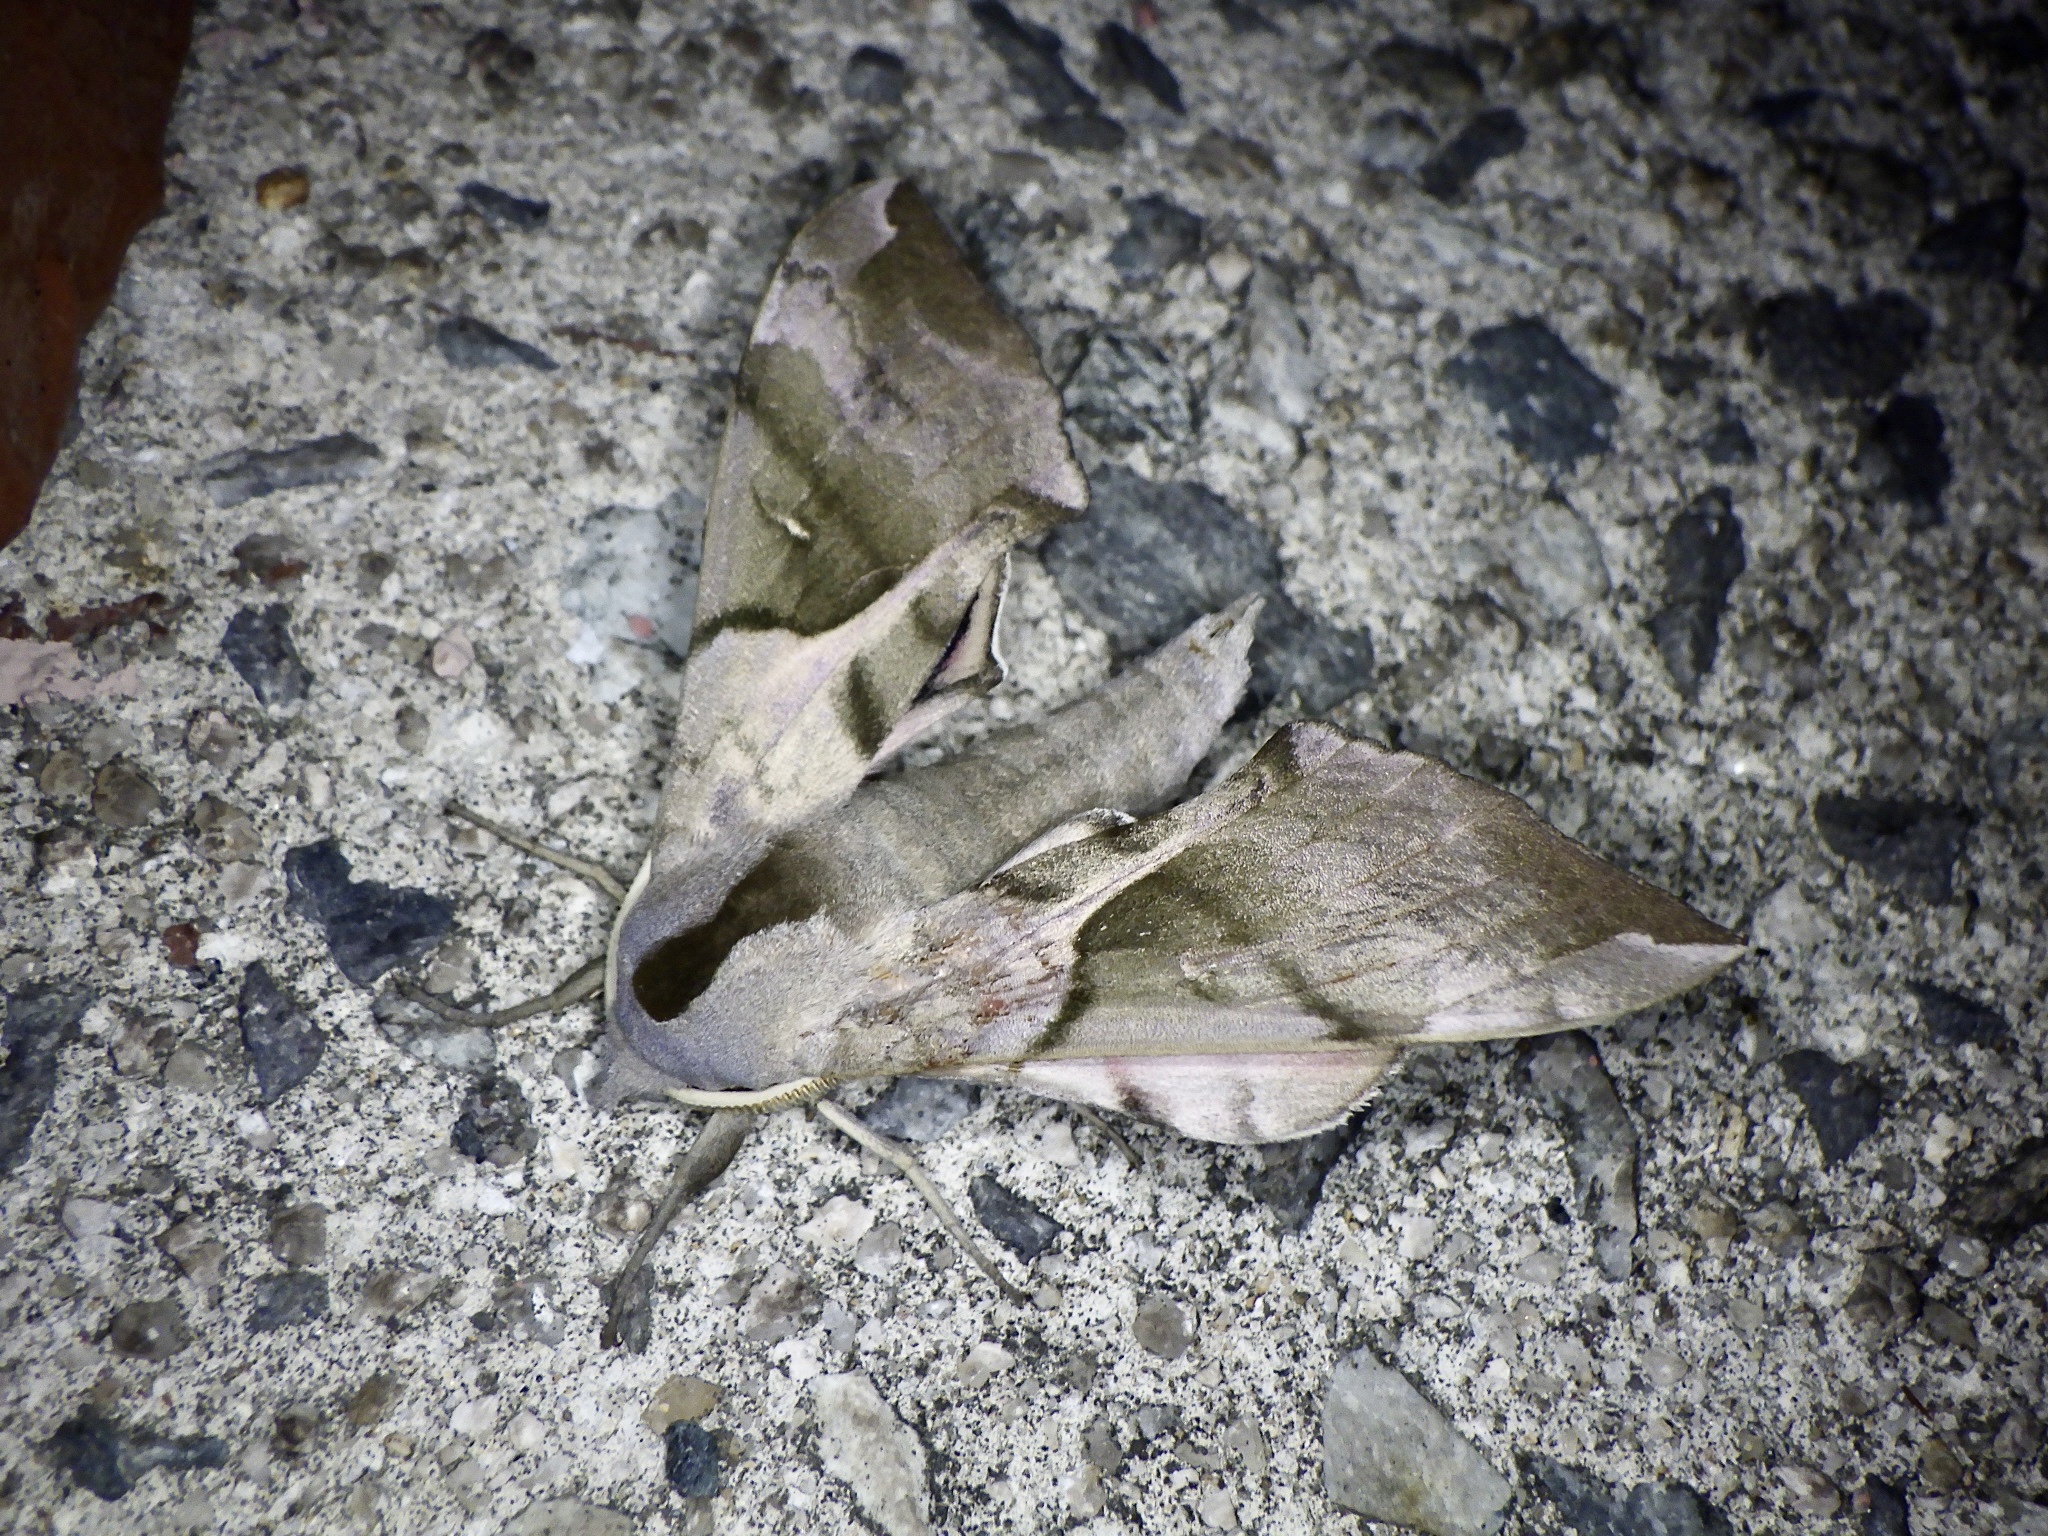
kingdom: Animalia
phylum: Arthropoda
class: Insecta
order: Lepidoptera
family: Sphingidae
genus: Smerinthus
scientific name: Smerinthus planus
